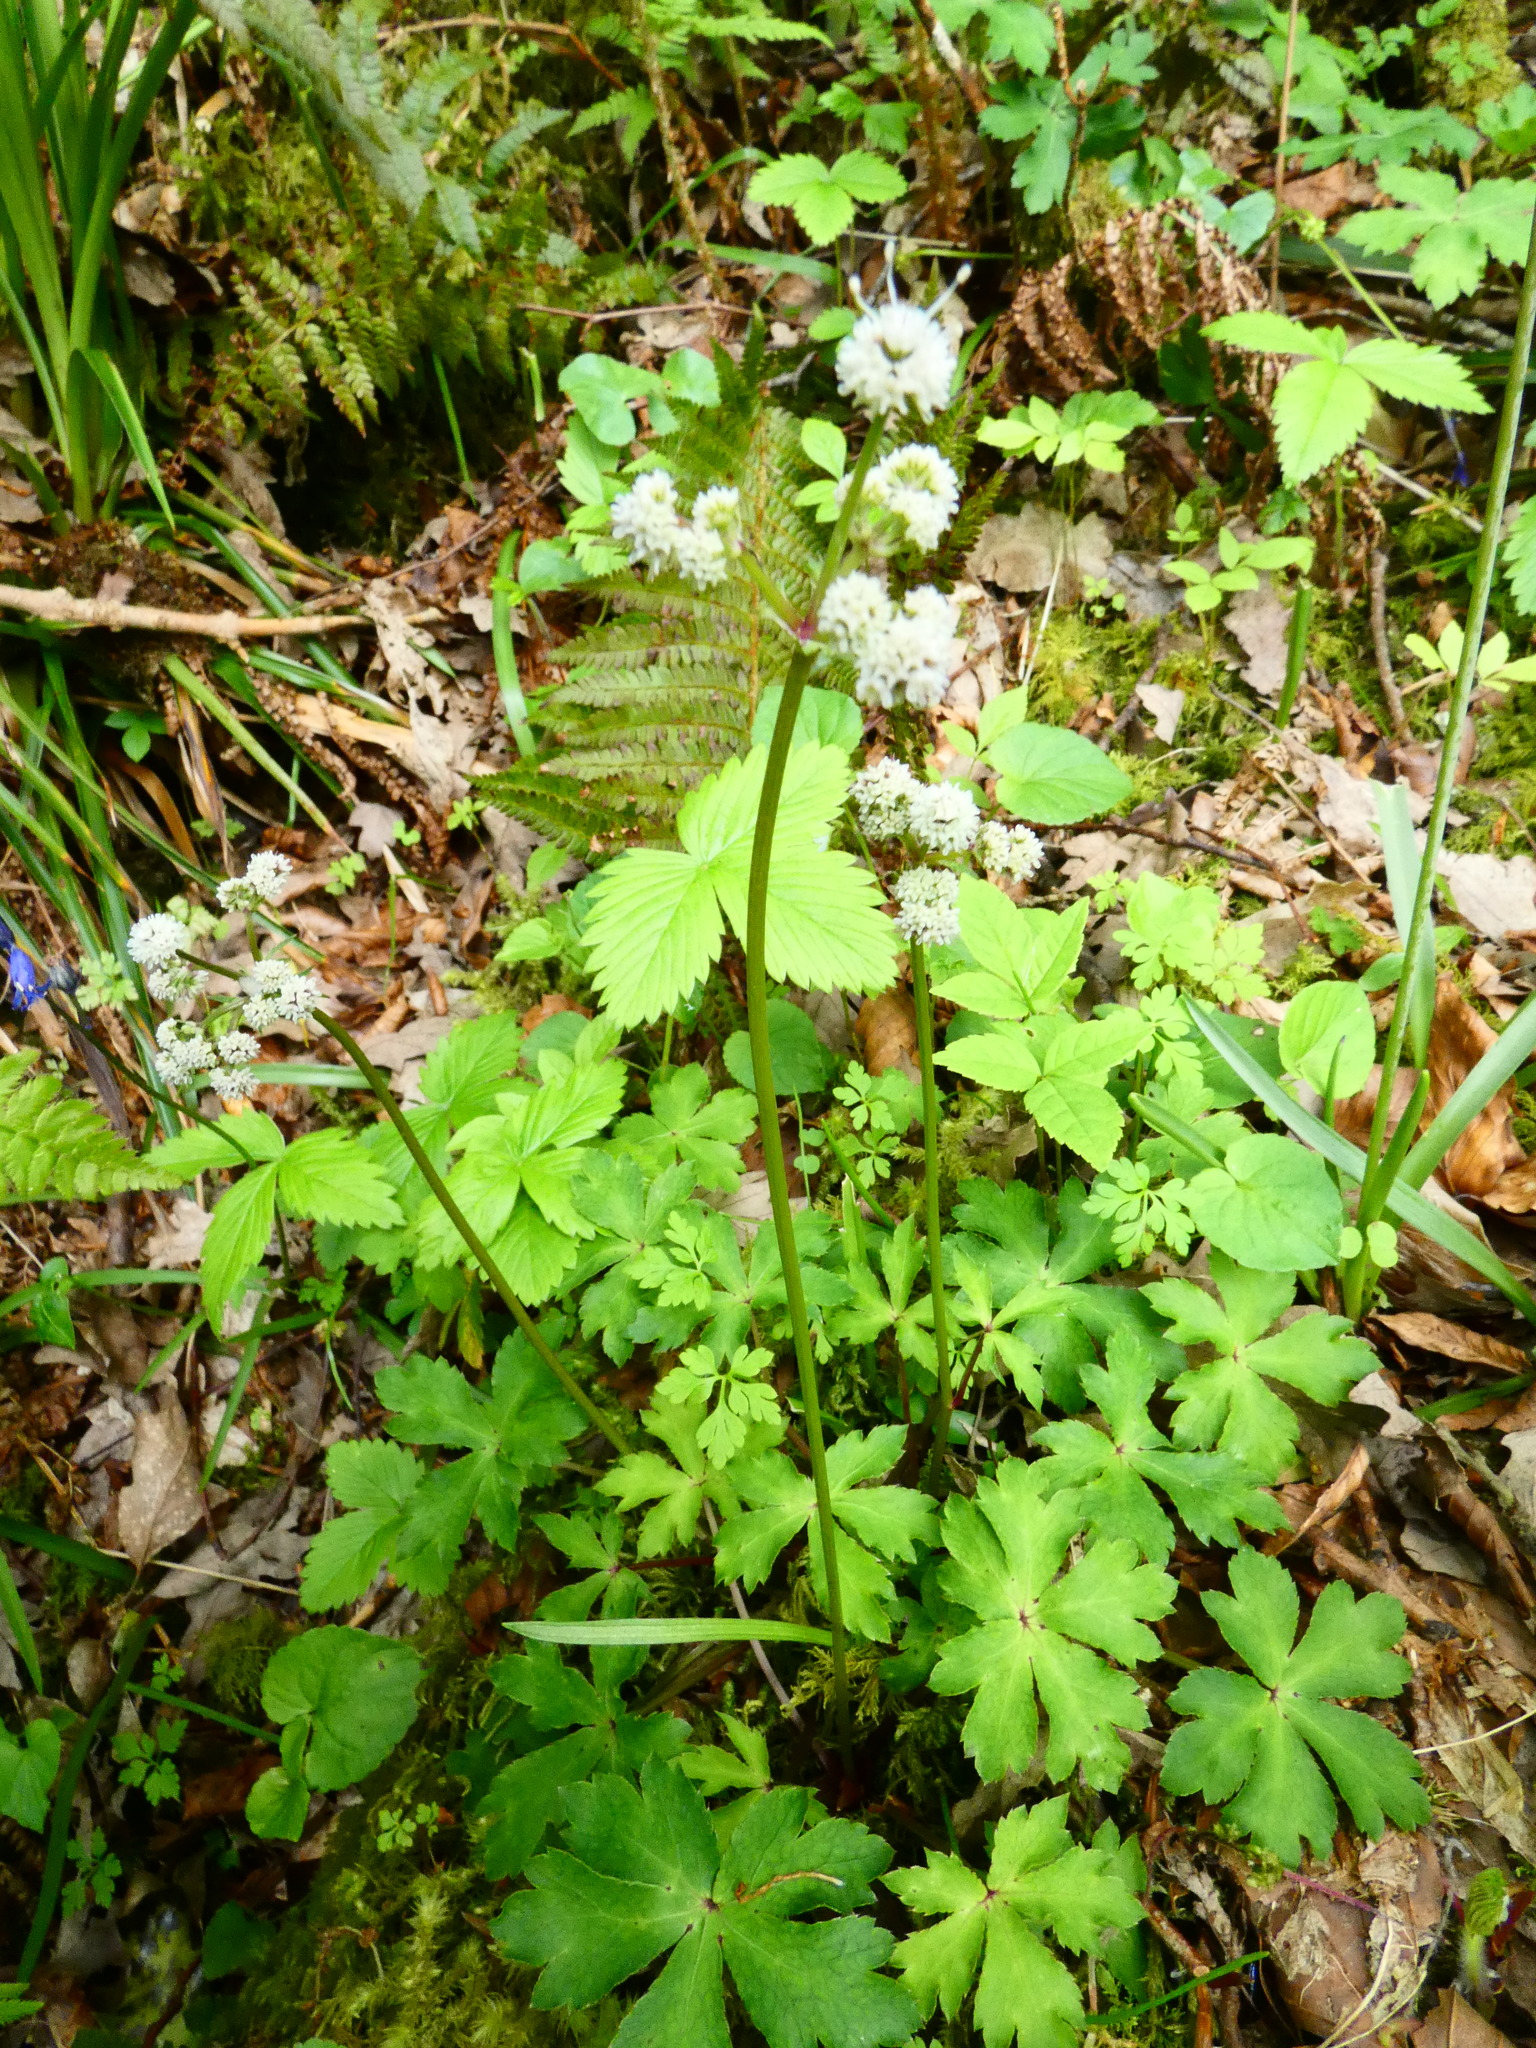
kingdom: Plantae
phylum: Tracheophyta
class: Magnoliopsida
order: Apiales
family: Apiaceae
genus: Sanicula
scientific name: Sanicula europaea
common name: Sanicle
